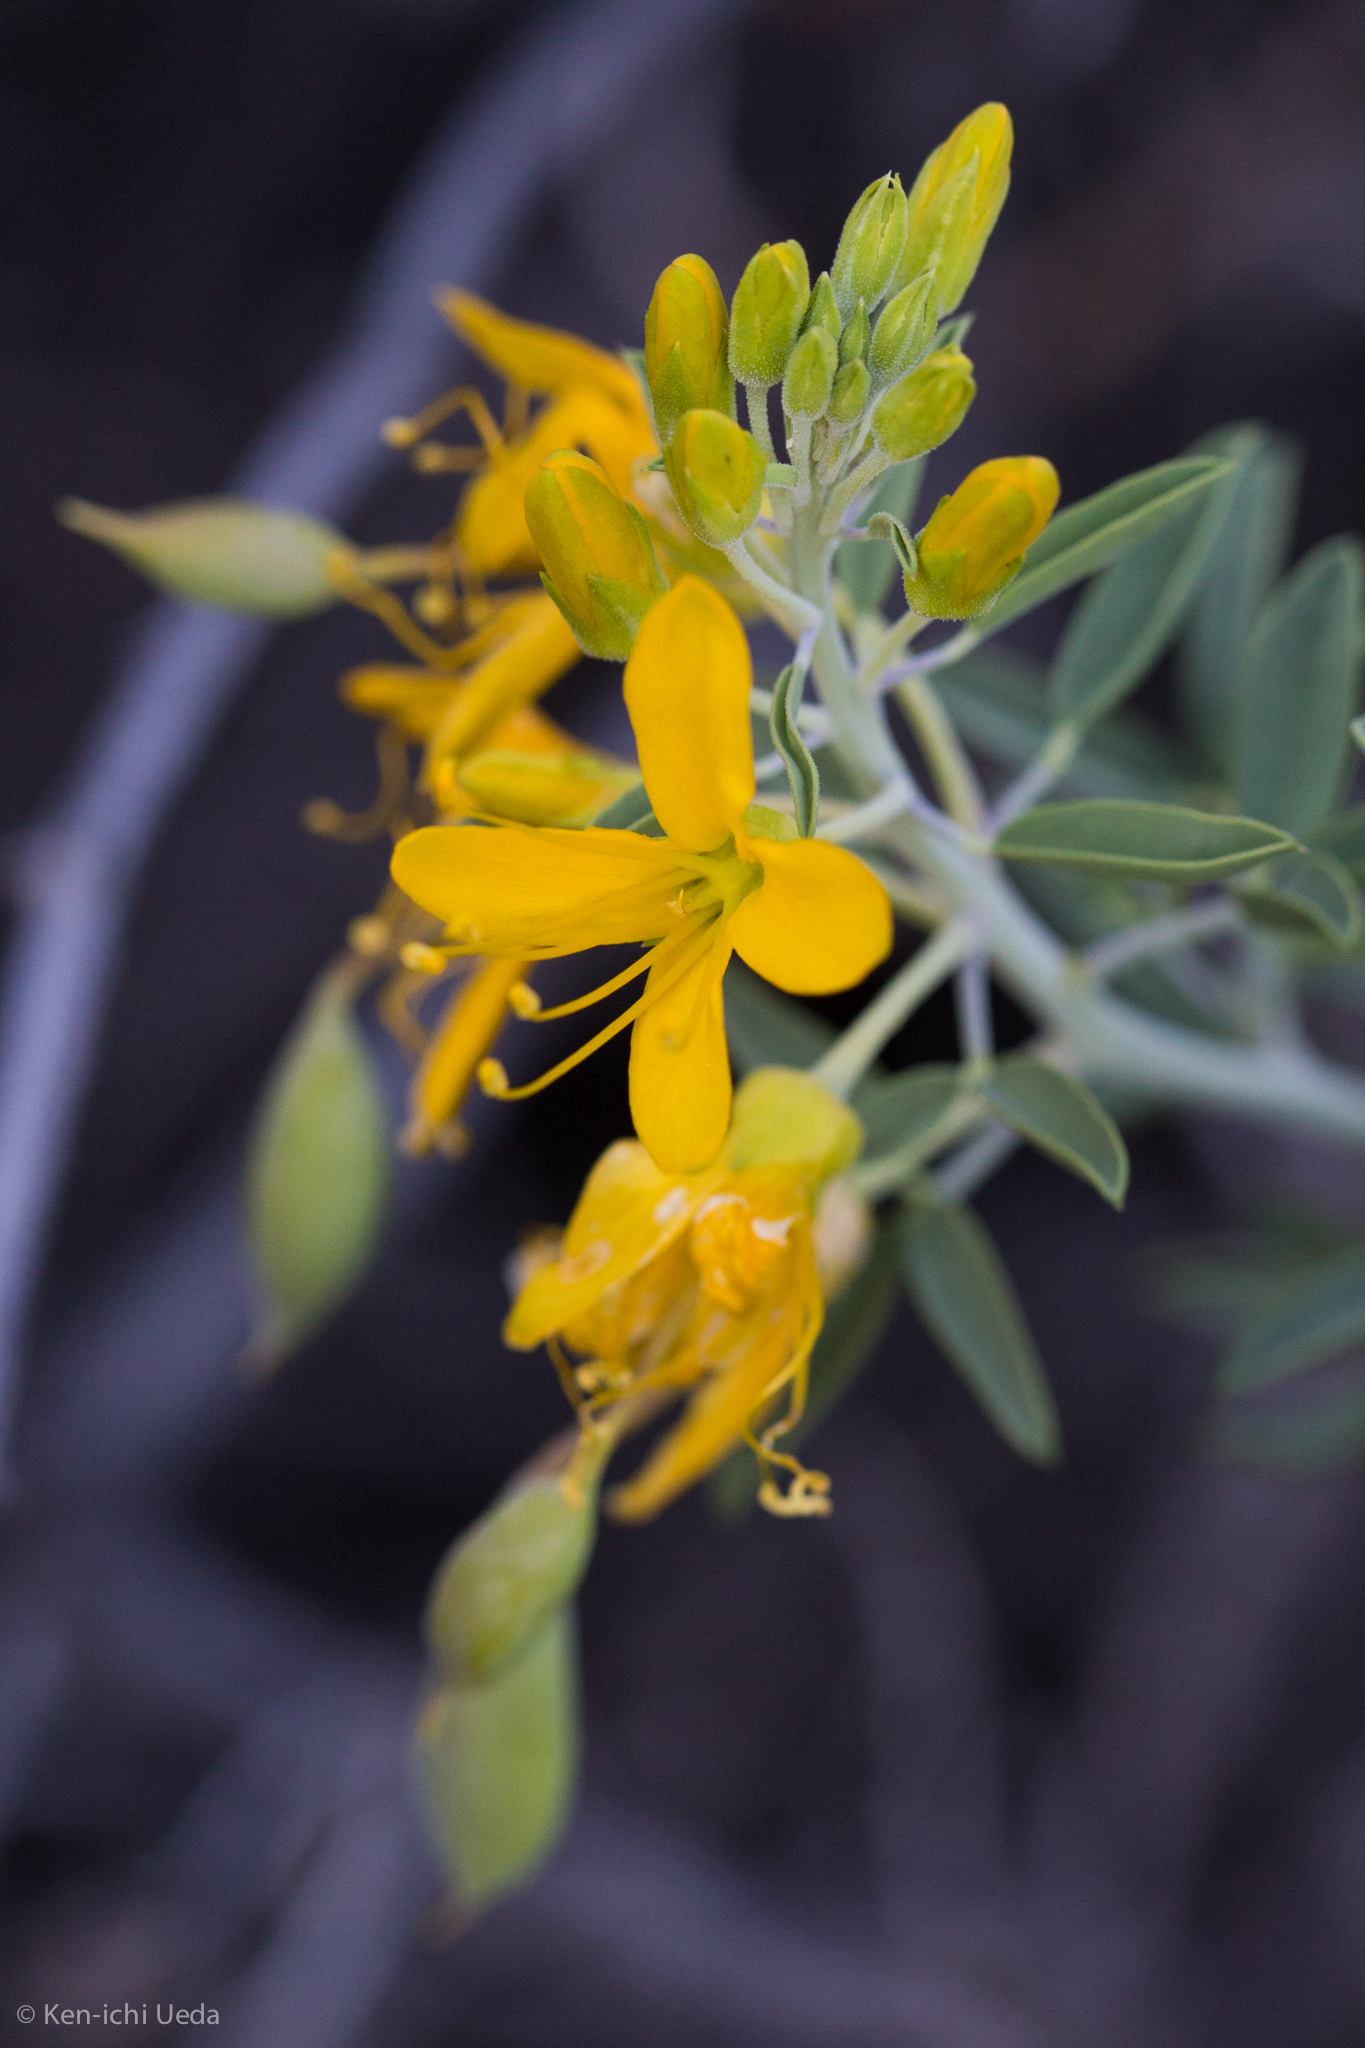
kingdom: Plantae
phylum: Tracheophyta
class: Magnoliopsida
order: Brassicales
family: Cleomaceae
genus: Cleomella
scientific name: Cleomella arborea
